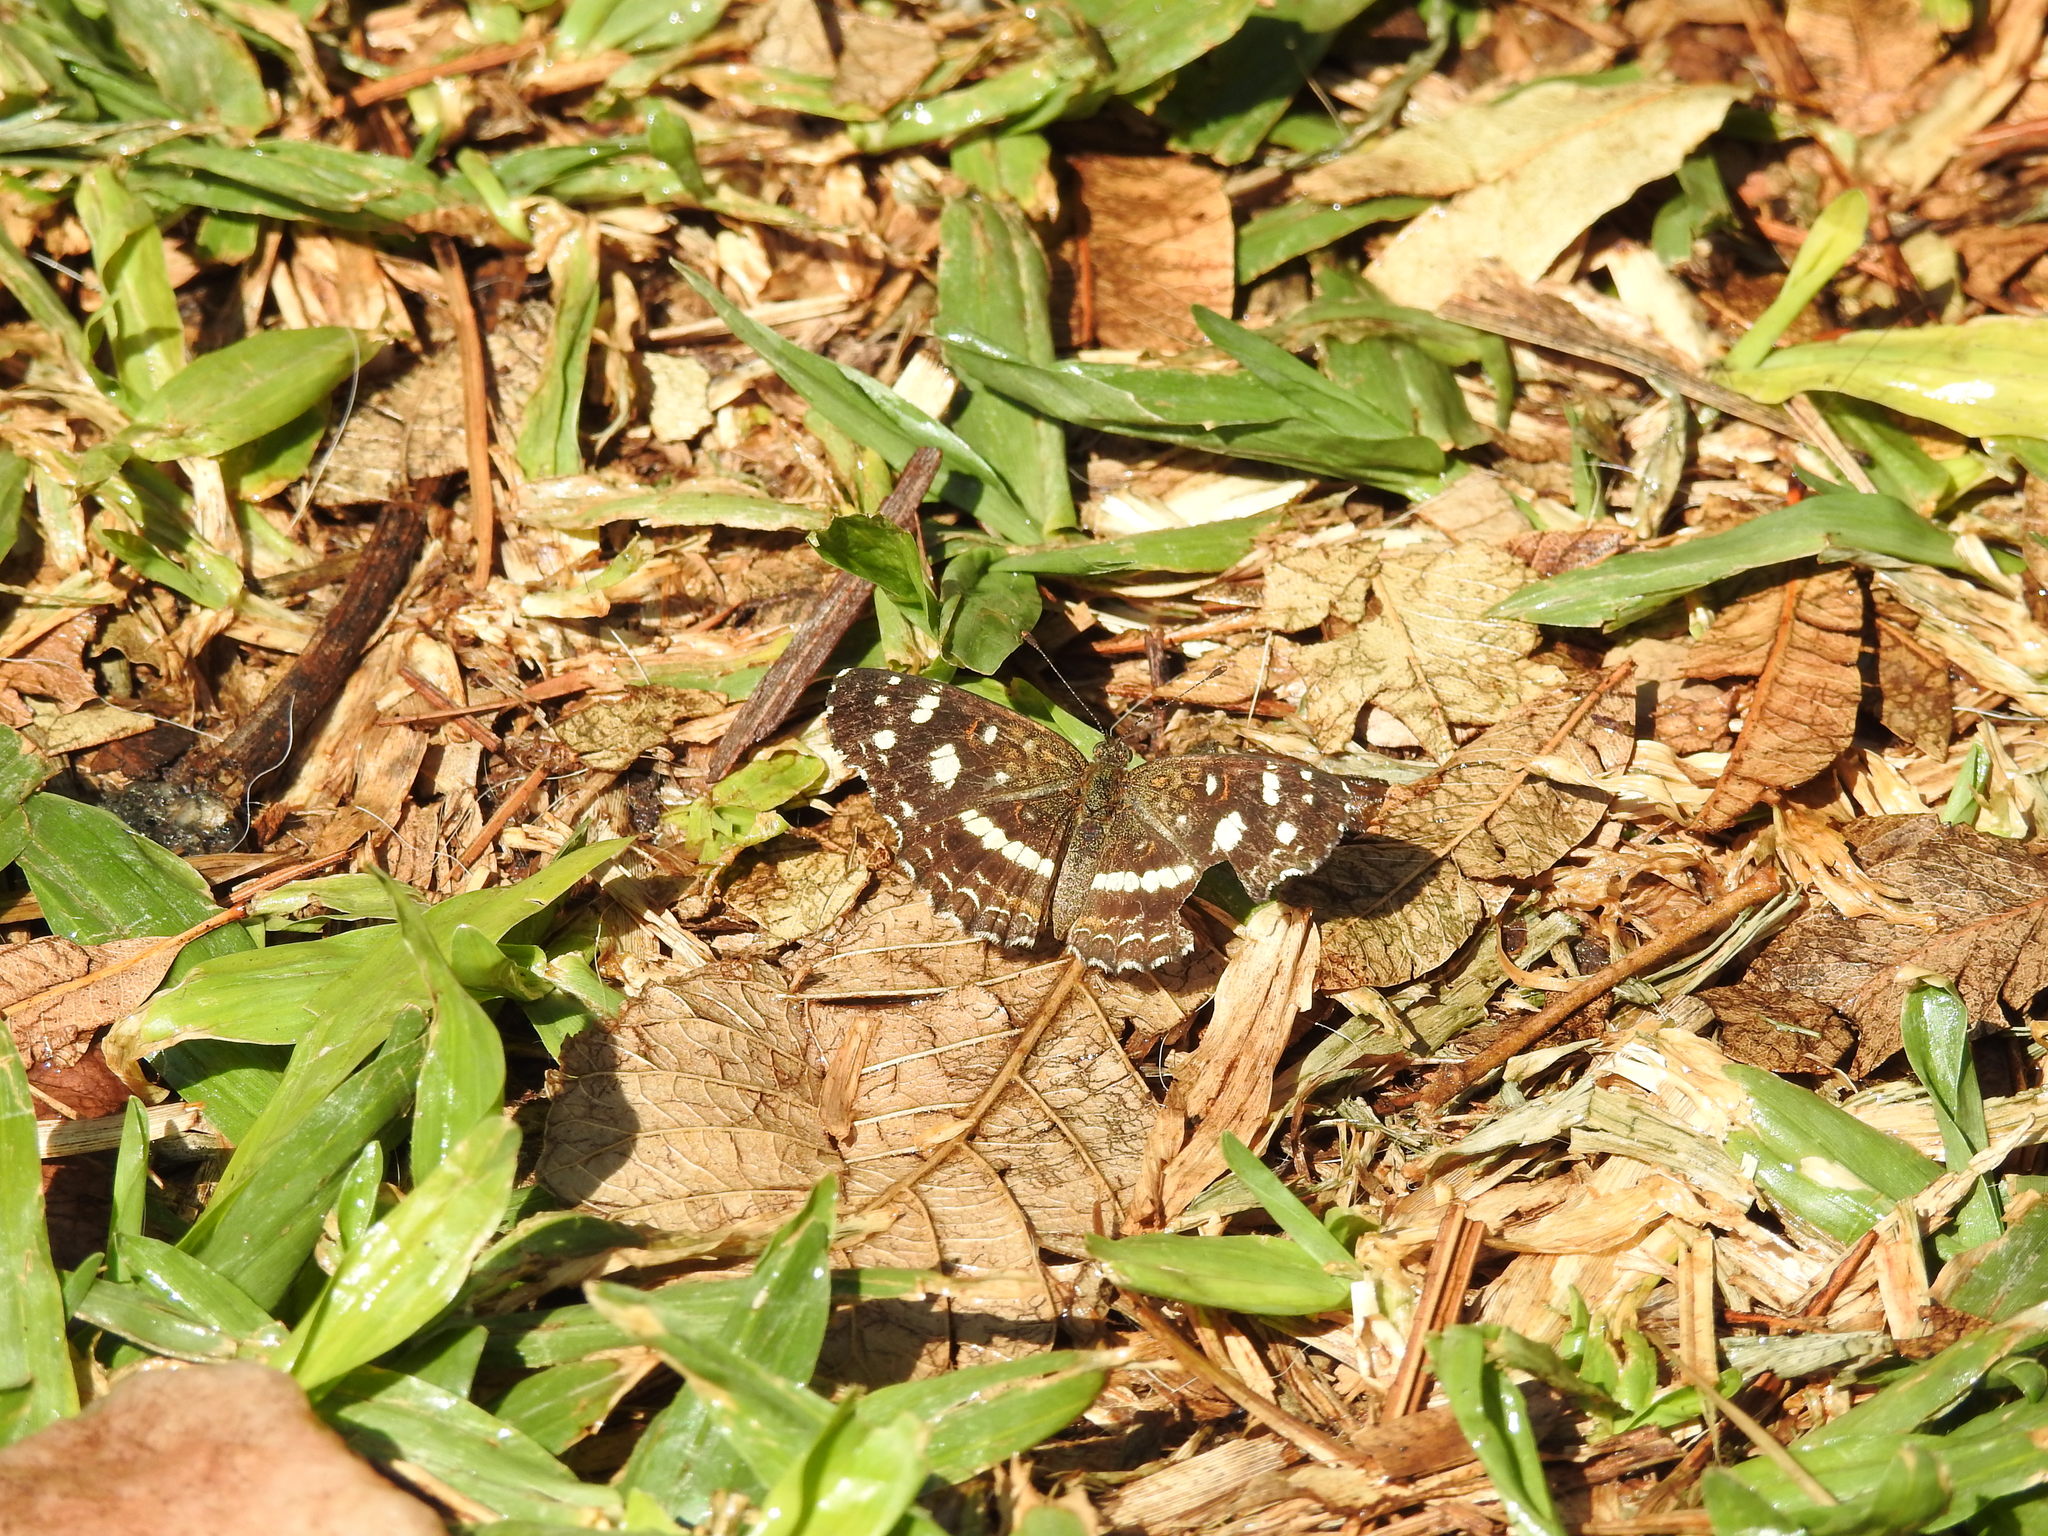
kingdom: Animalia
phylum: Arthropoda
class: Insecta
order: Lepidoptera
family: Nymphalidae
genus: Ortilia
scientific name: Ortilia ithra
